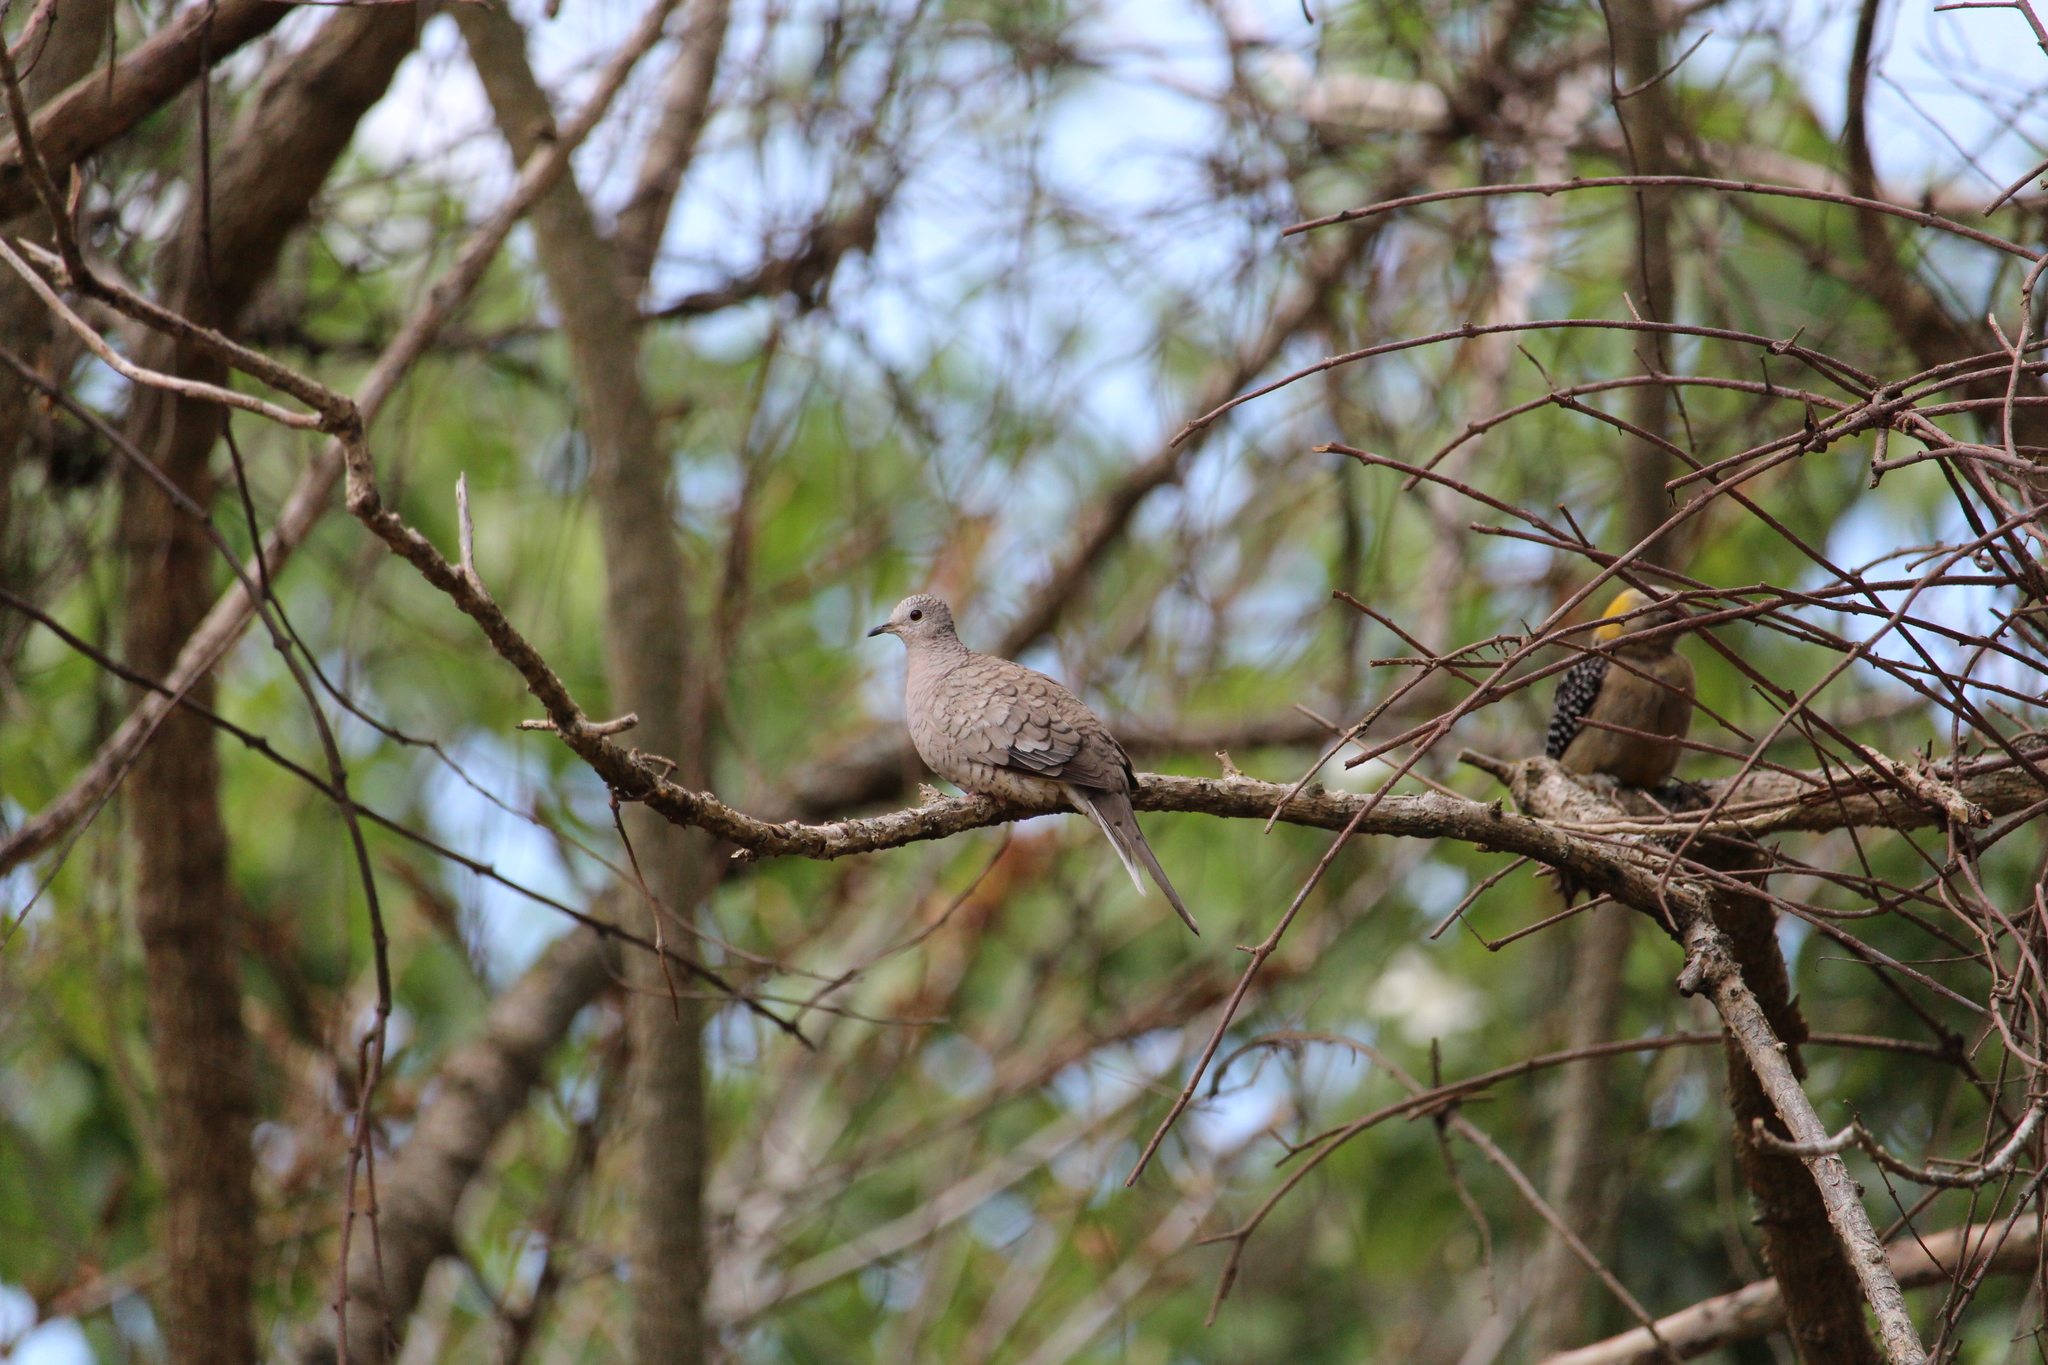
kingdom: Animalia
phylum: Chordata
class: Aves
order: Columbiformes
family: Columbidae
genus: Columbina
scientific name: Columbina inca
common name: Inca dove
